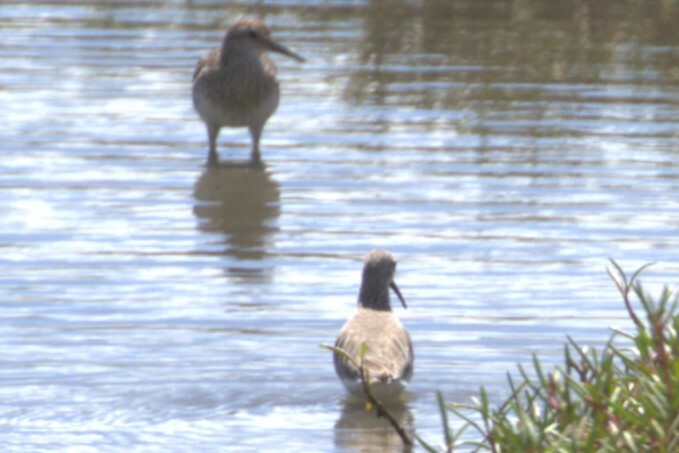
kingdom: Animalia
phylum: Chordata
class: Aves
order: Charadriiformes
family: Scolopacidae
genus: Calidris
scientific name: Calidris ferruginea
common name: Curlew sandpiper
